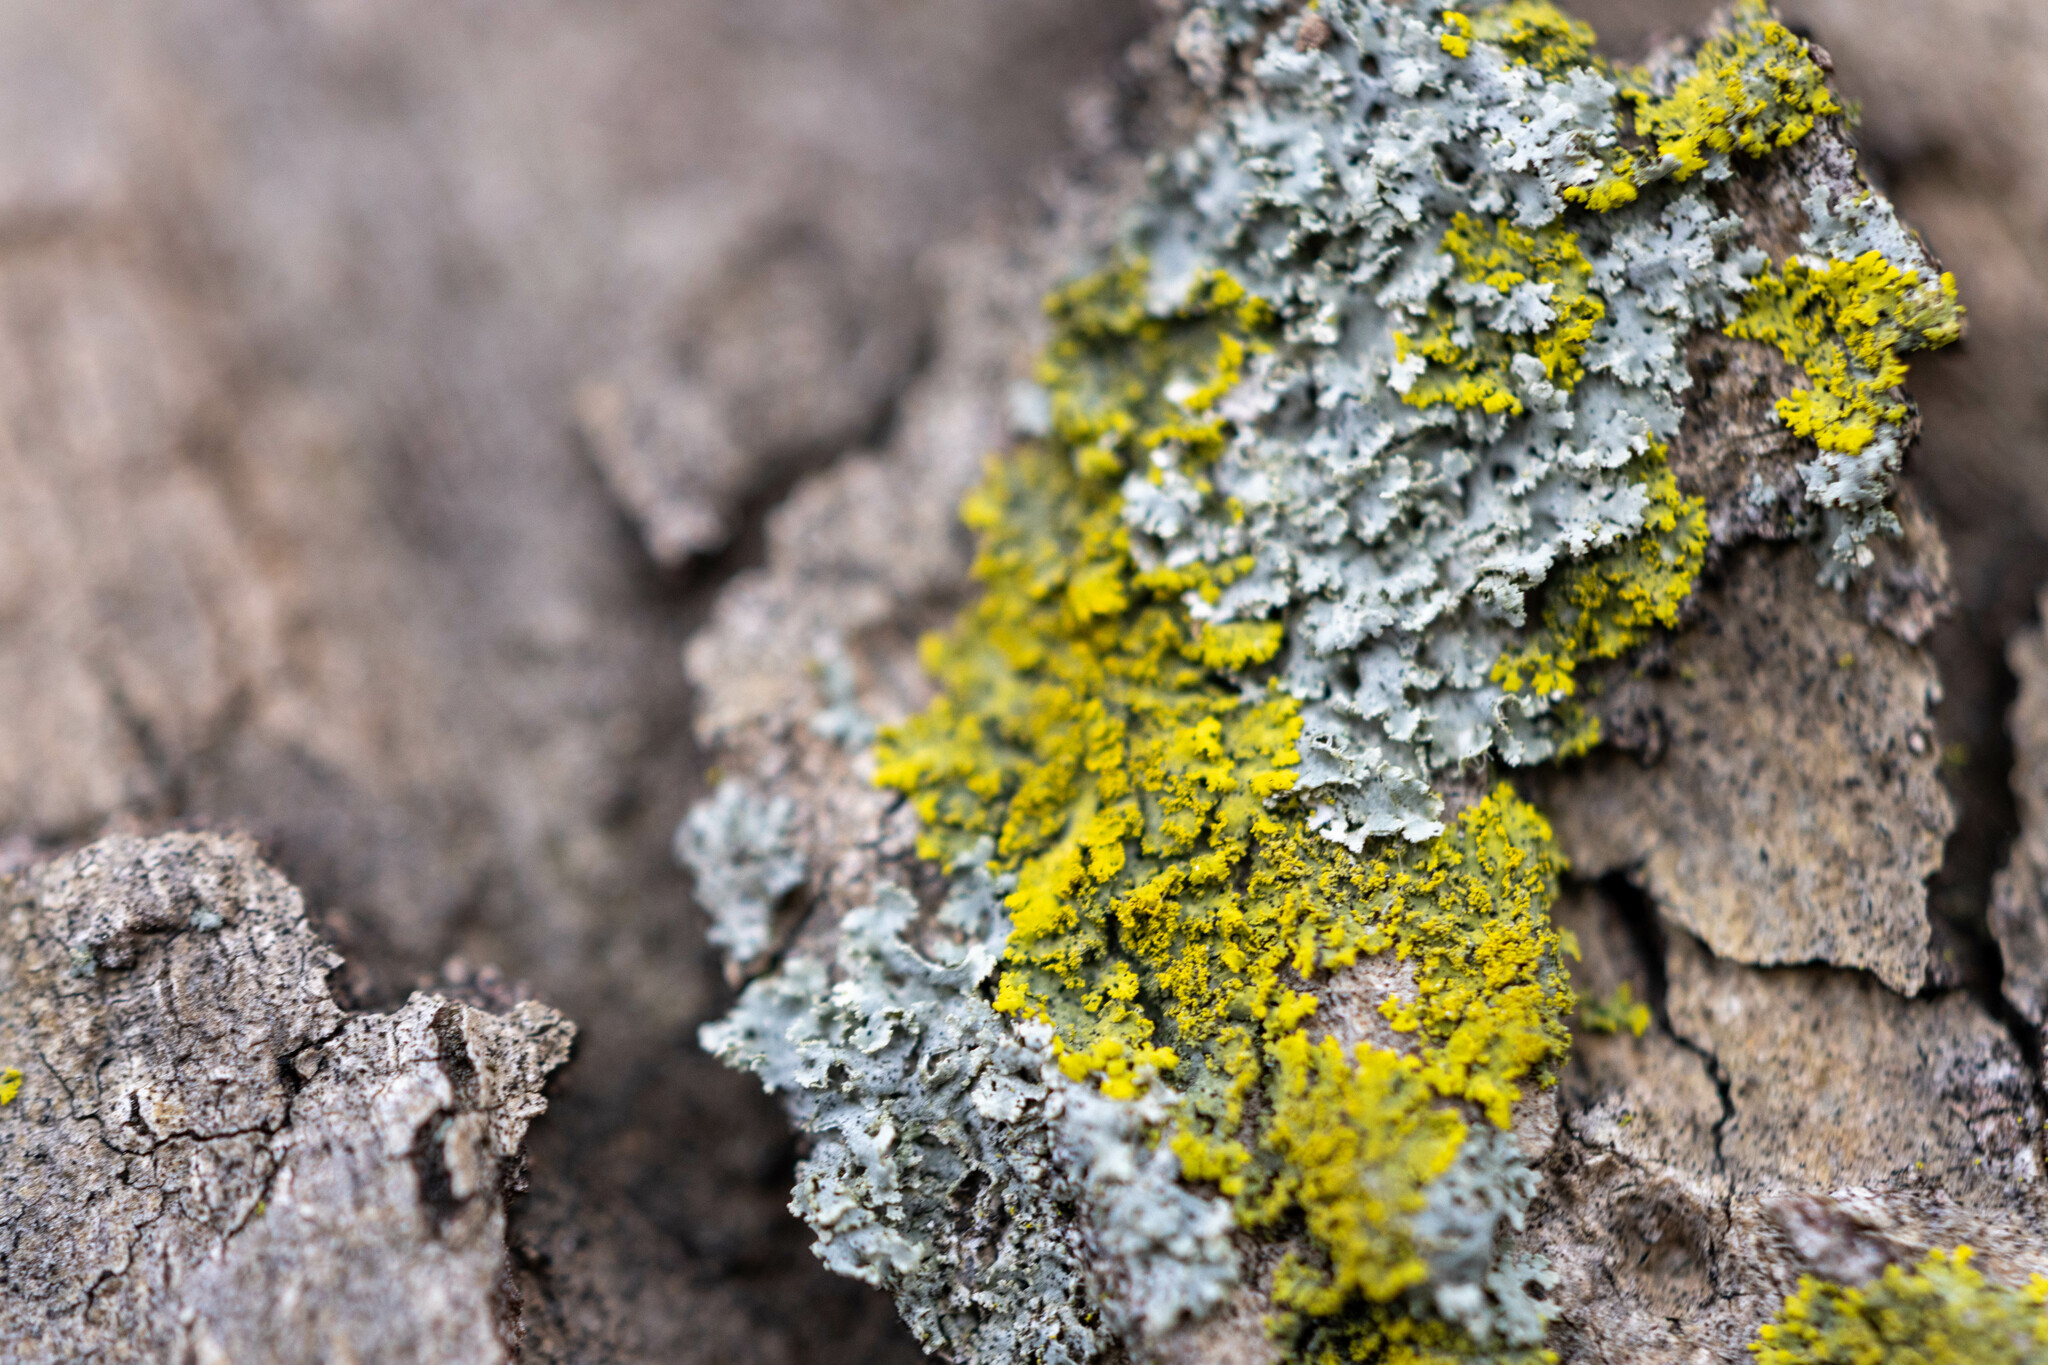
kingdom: Fungi
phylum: Ascomycota
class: Candelariomycetes
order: Candelariales
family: Candelariaceae
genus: Candelaria
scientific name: Candelaria concolor
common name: Candleflame lichen
